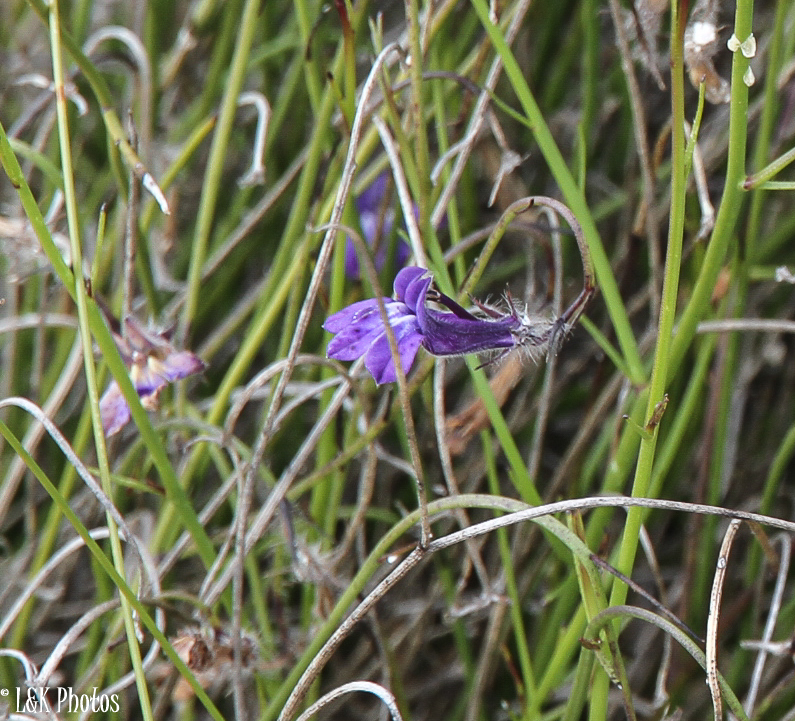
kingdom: Plantae
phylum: Tracheophyta
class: Magnoliopsida
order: Asterales
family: Campanulaceae
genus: Lobelia
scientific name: Lobelia linearis
